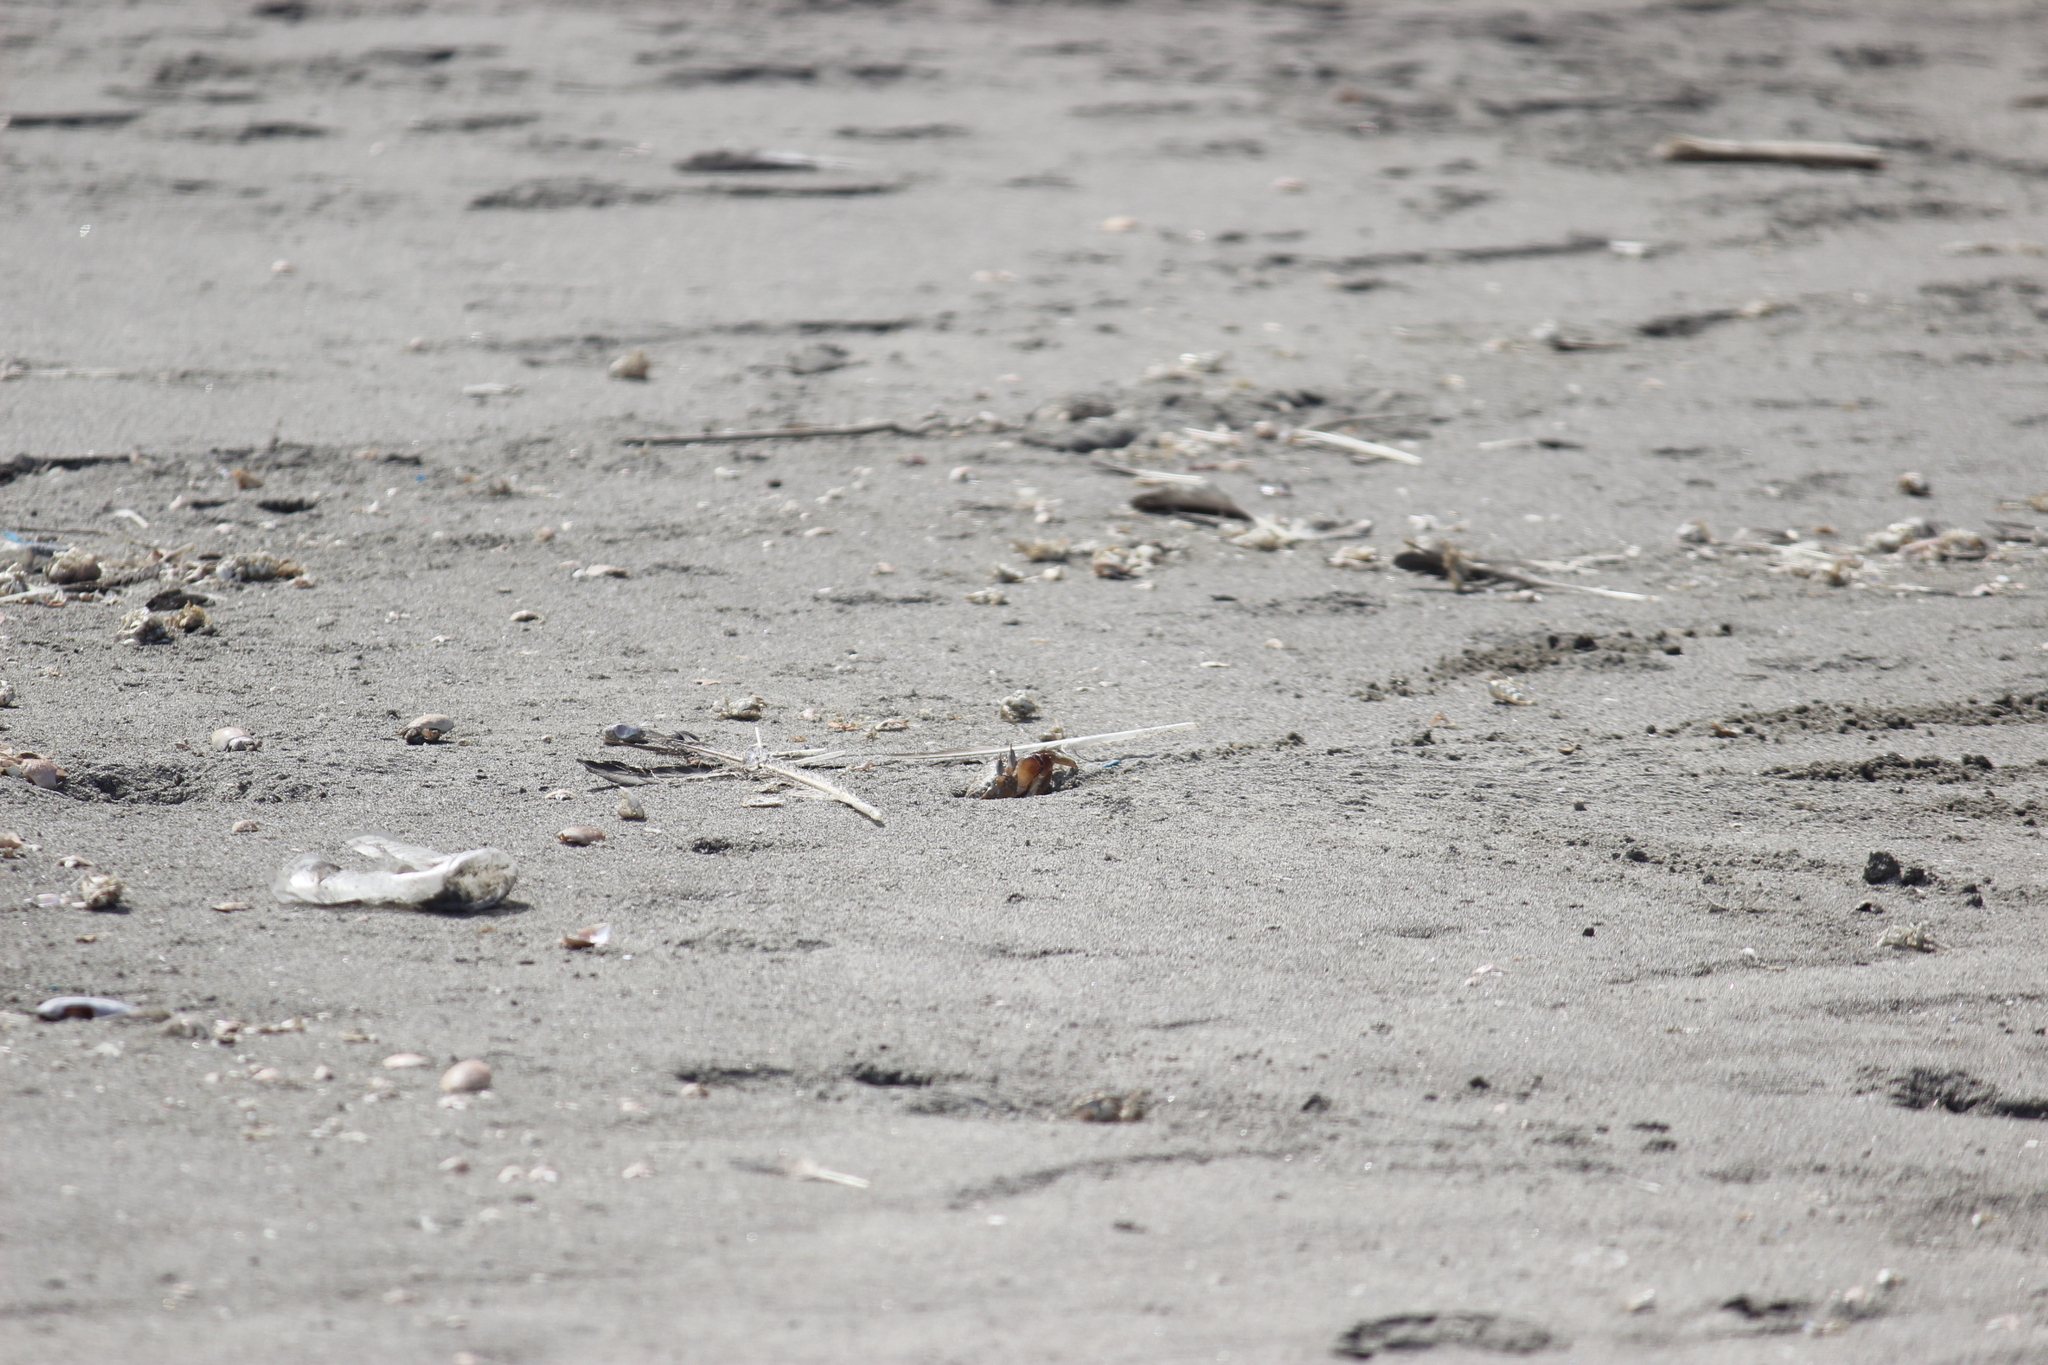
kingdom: Animalia
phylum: Arthropoda
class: Malacostraca
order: Decapoda
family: Ocypodidae
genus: Ocypode
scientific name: Ocypode gaudichaudii
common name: Pacific ghost crab
